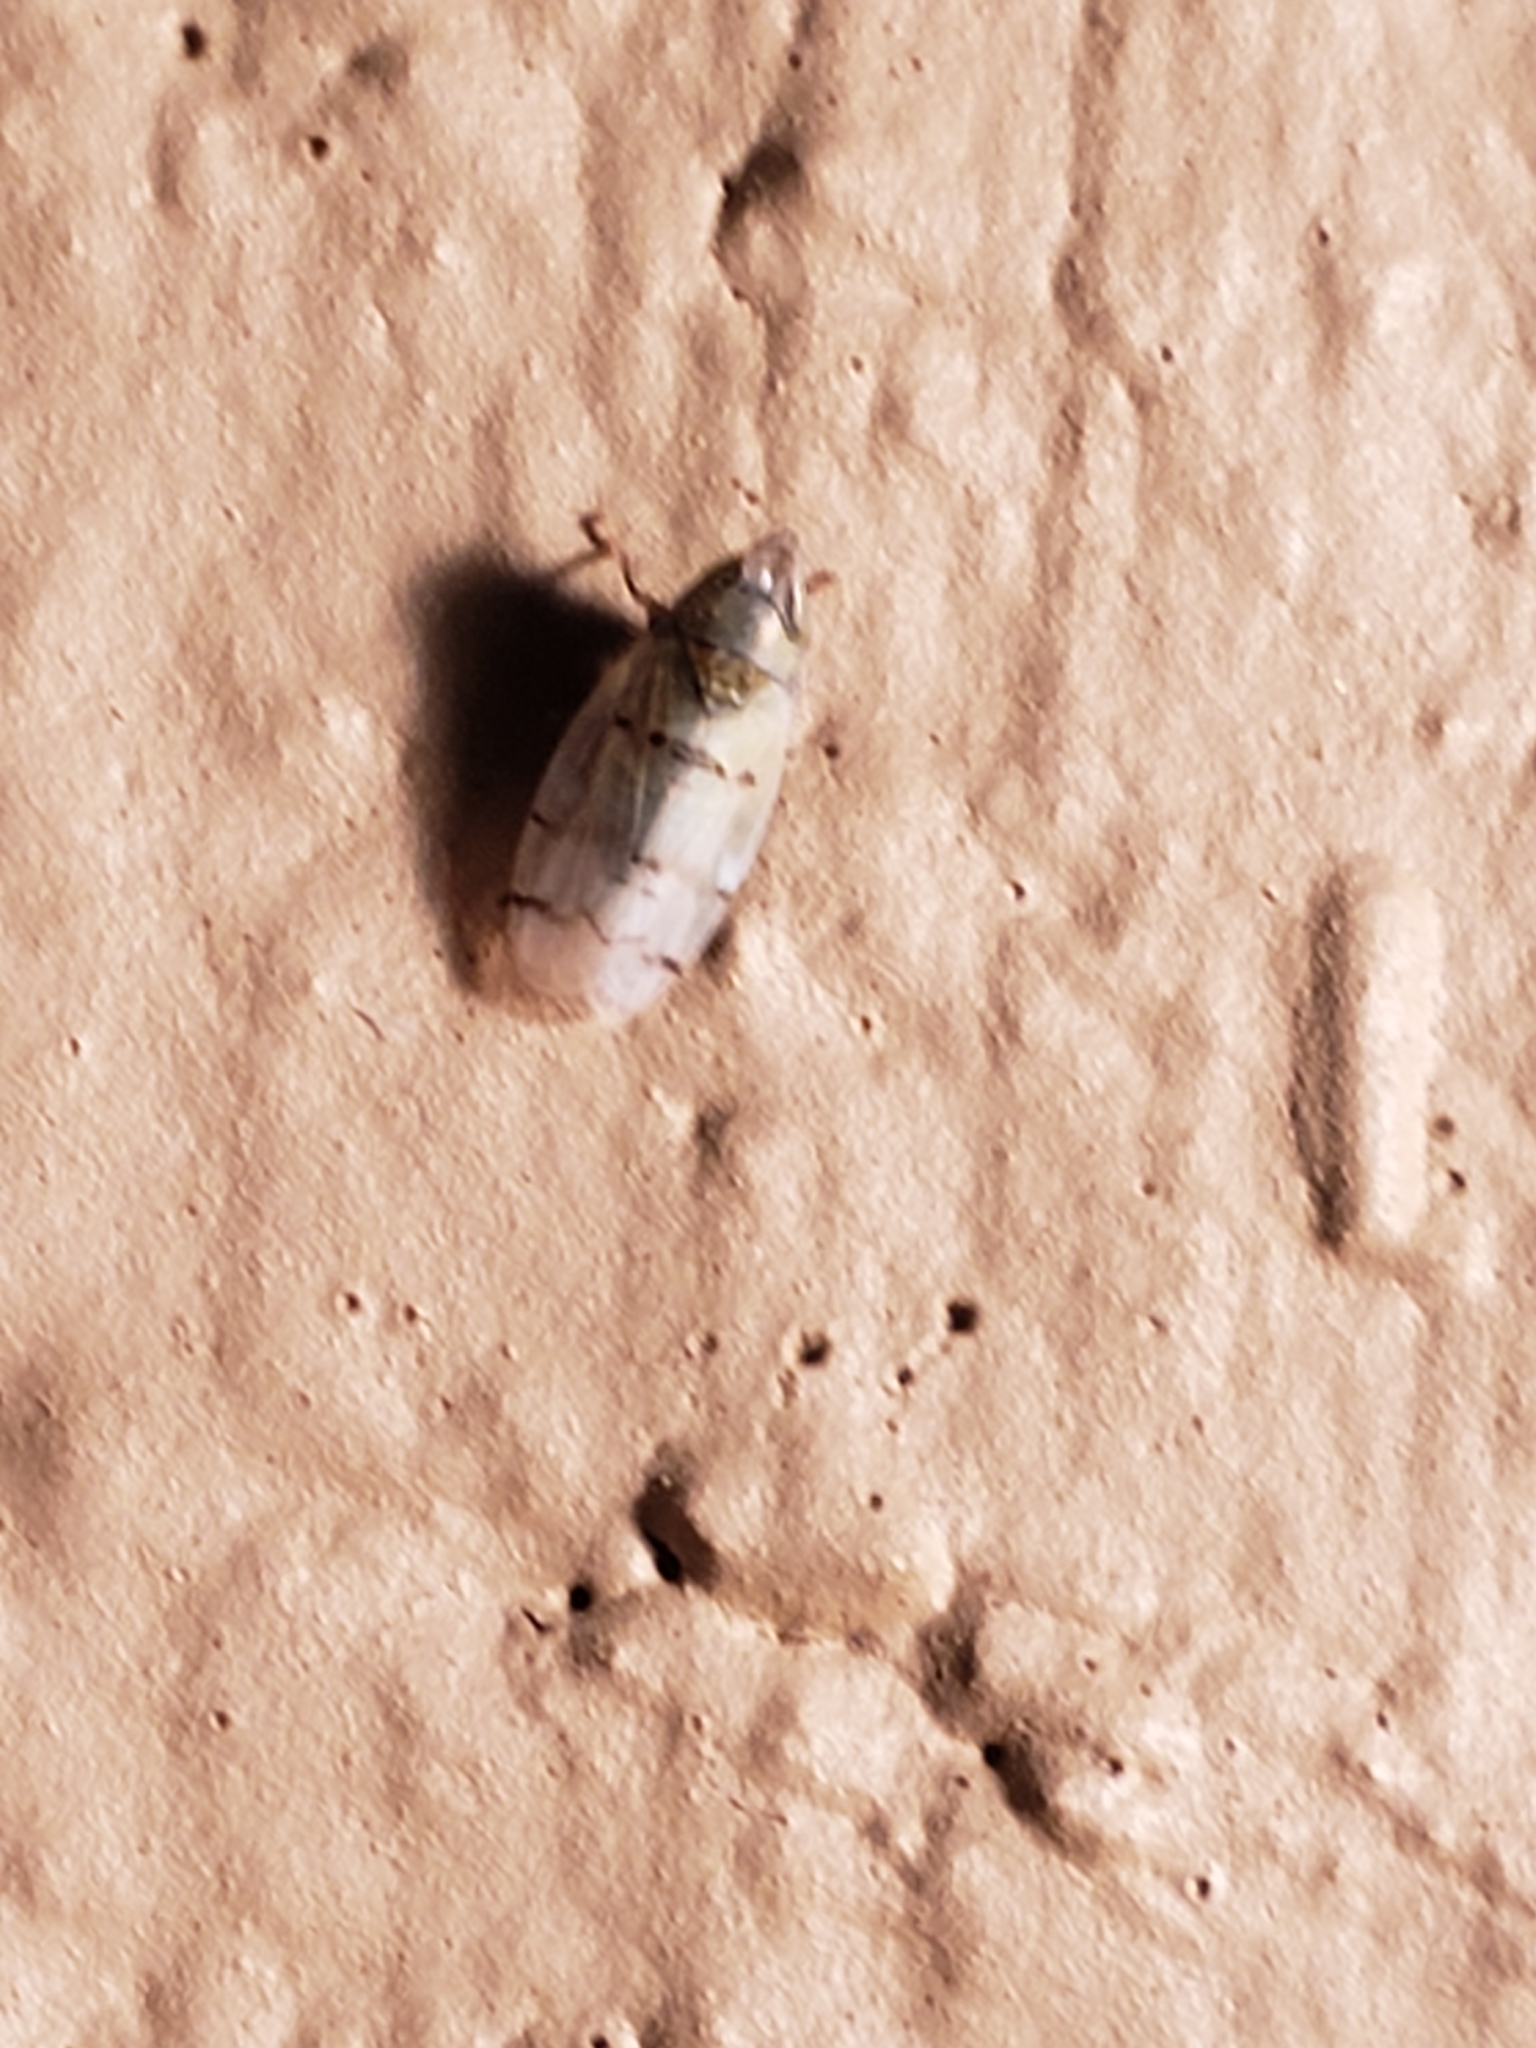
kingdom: Animalia
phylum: Arthropoda
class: Insecta
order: Hemiptera
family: Cicadellidae
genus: Japananus
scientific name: Japananus hyalinus
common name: The japanese maple leafhopper
